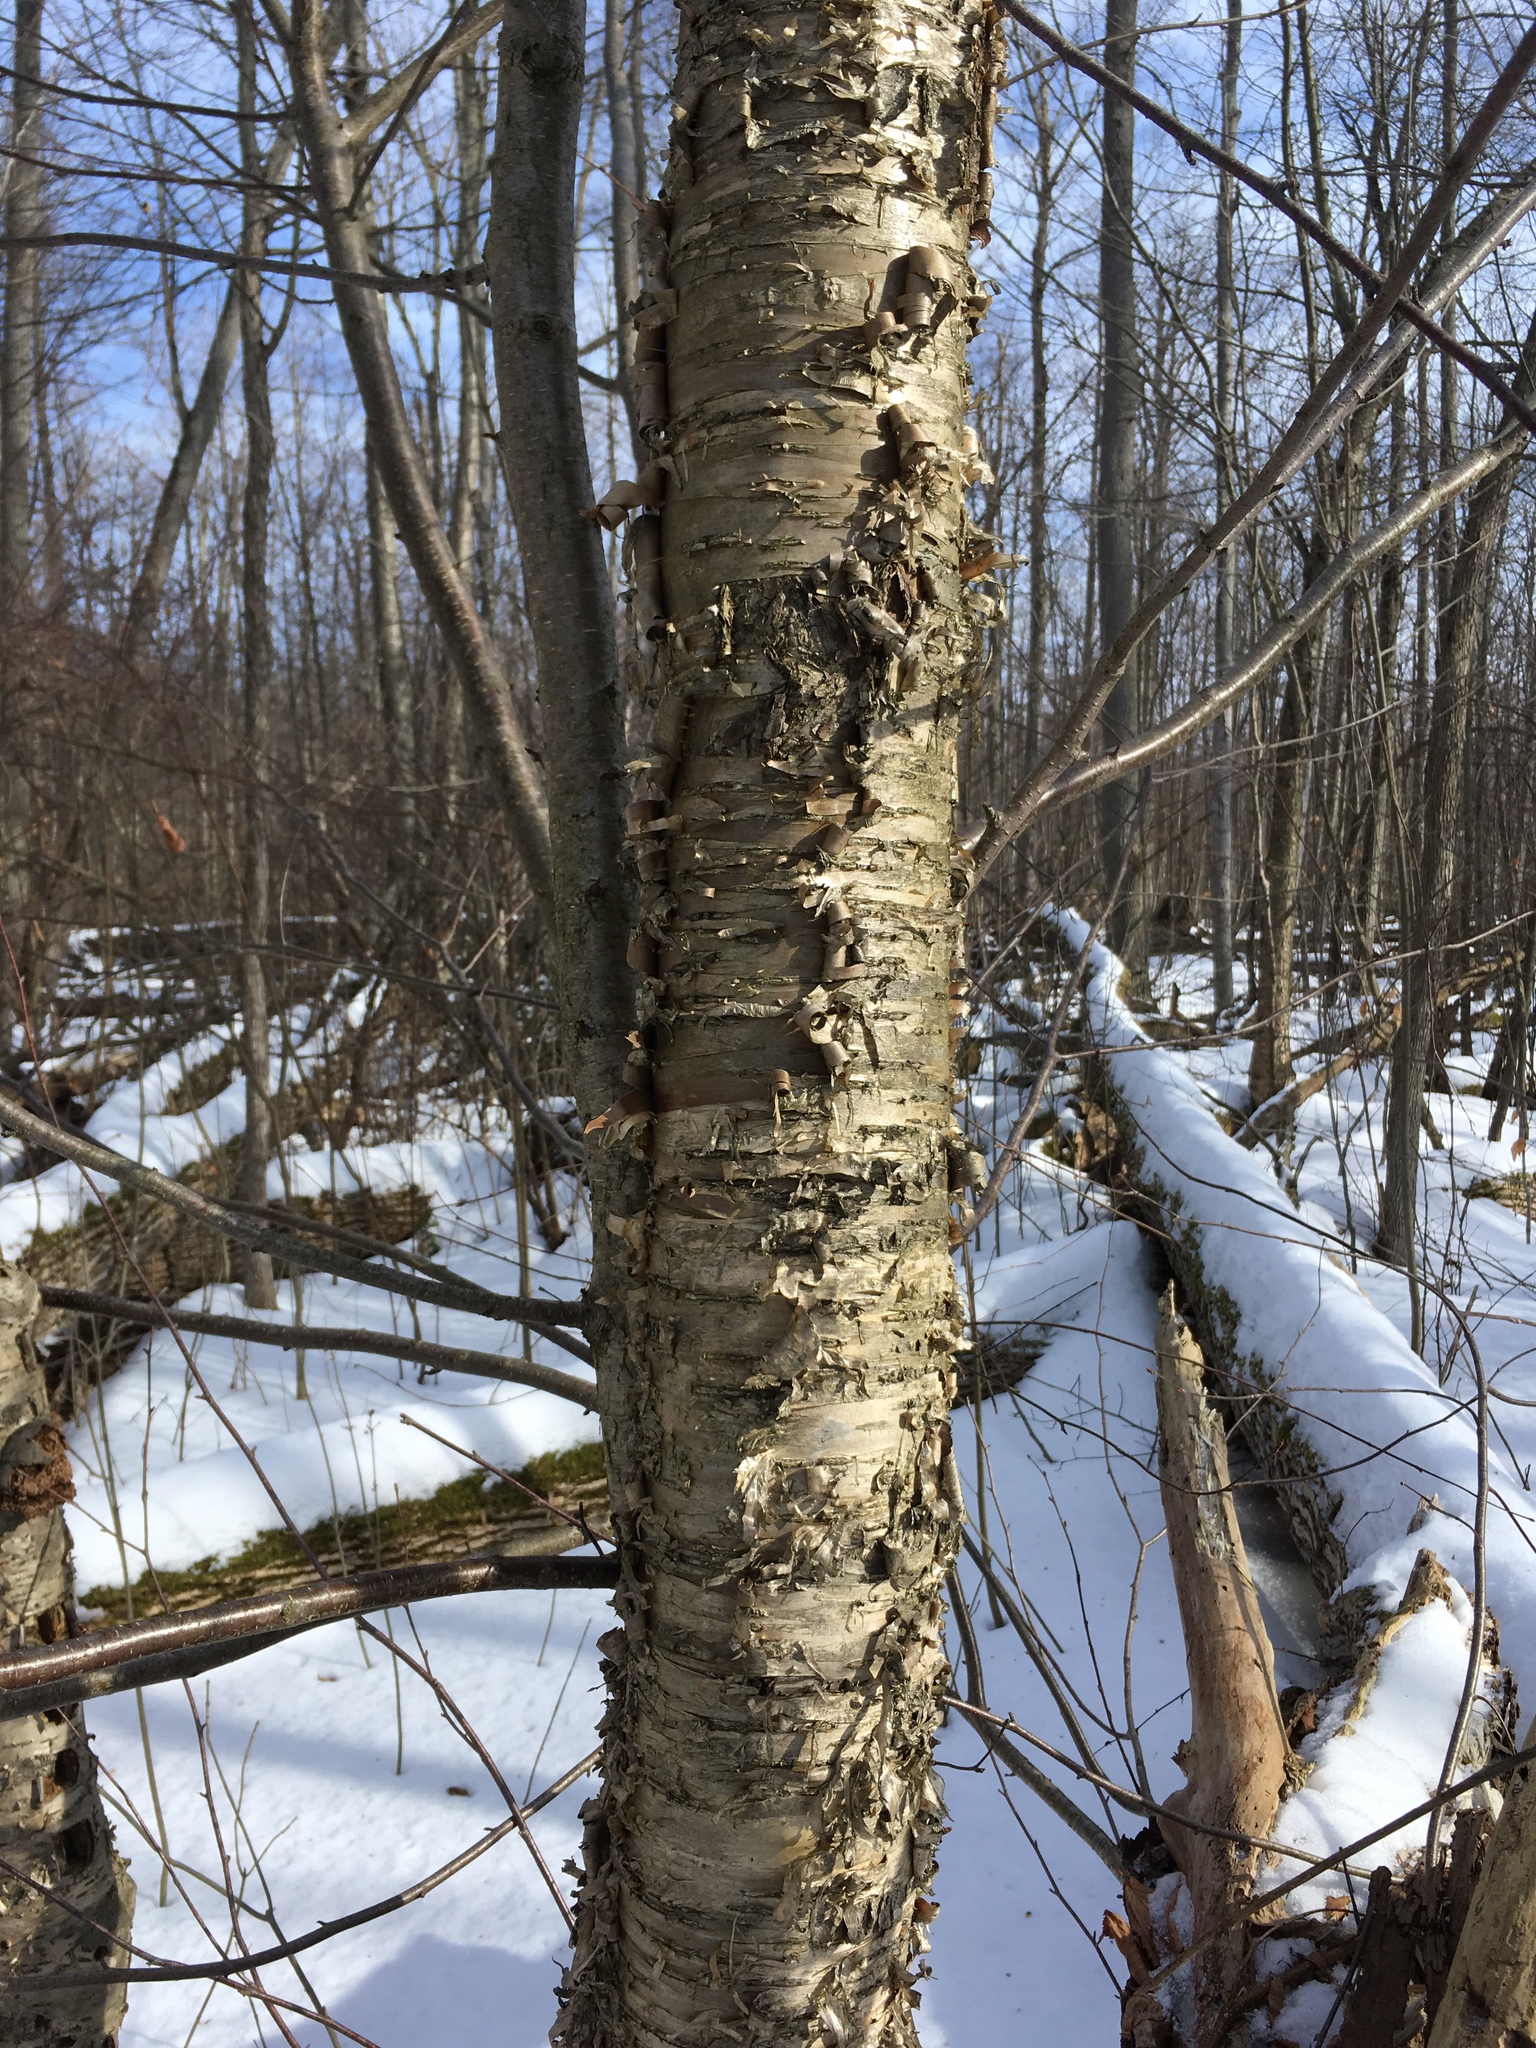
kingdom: Plantae
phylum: Tracheophyta
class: Magnoliopsida
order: Fagales
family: Betulaceae
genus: Betula
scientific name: Betula alleghaniensis
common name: Yellow birch
